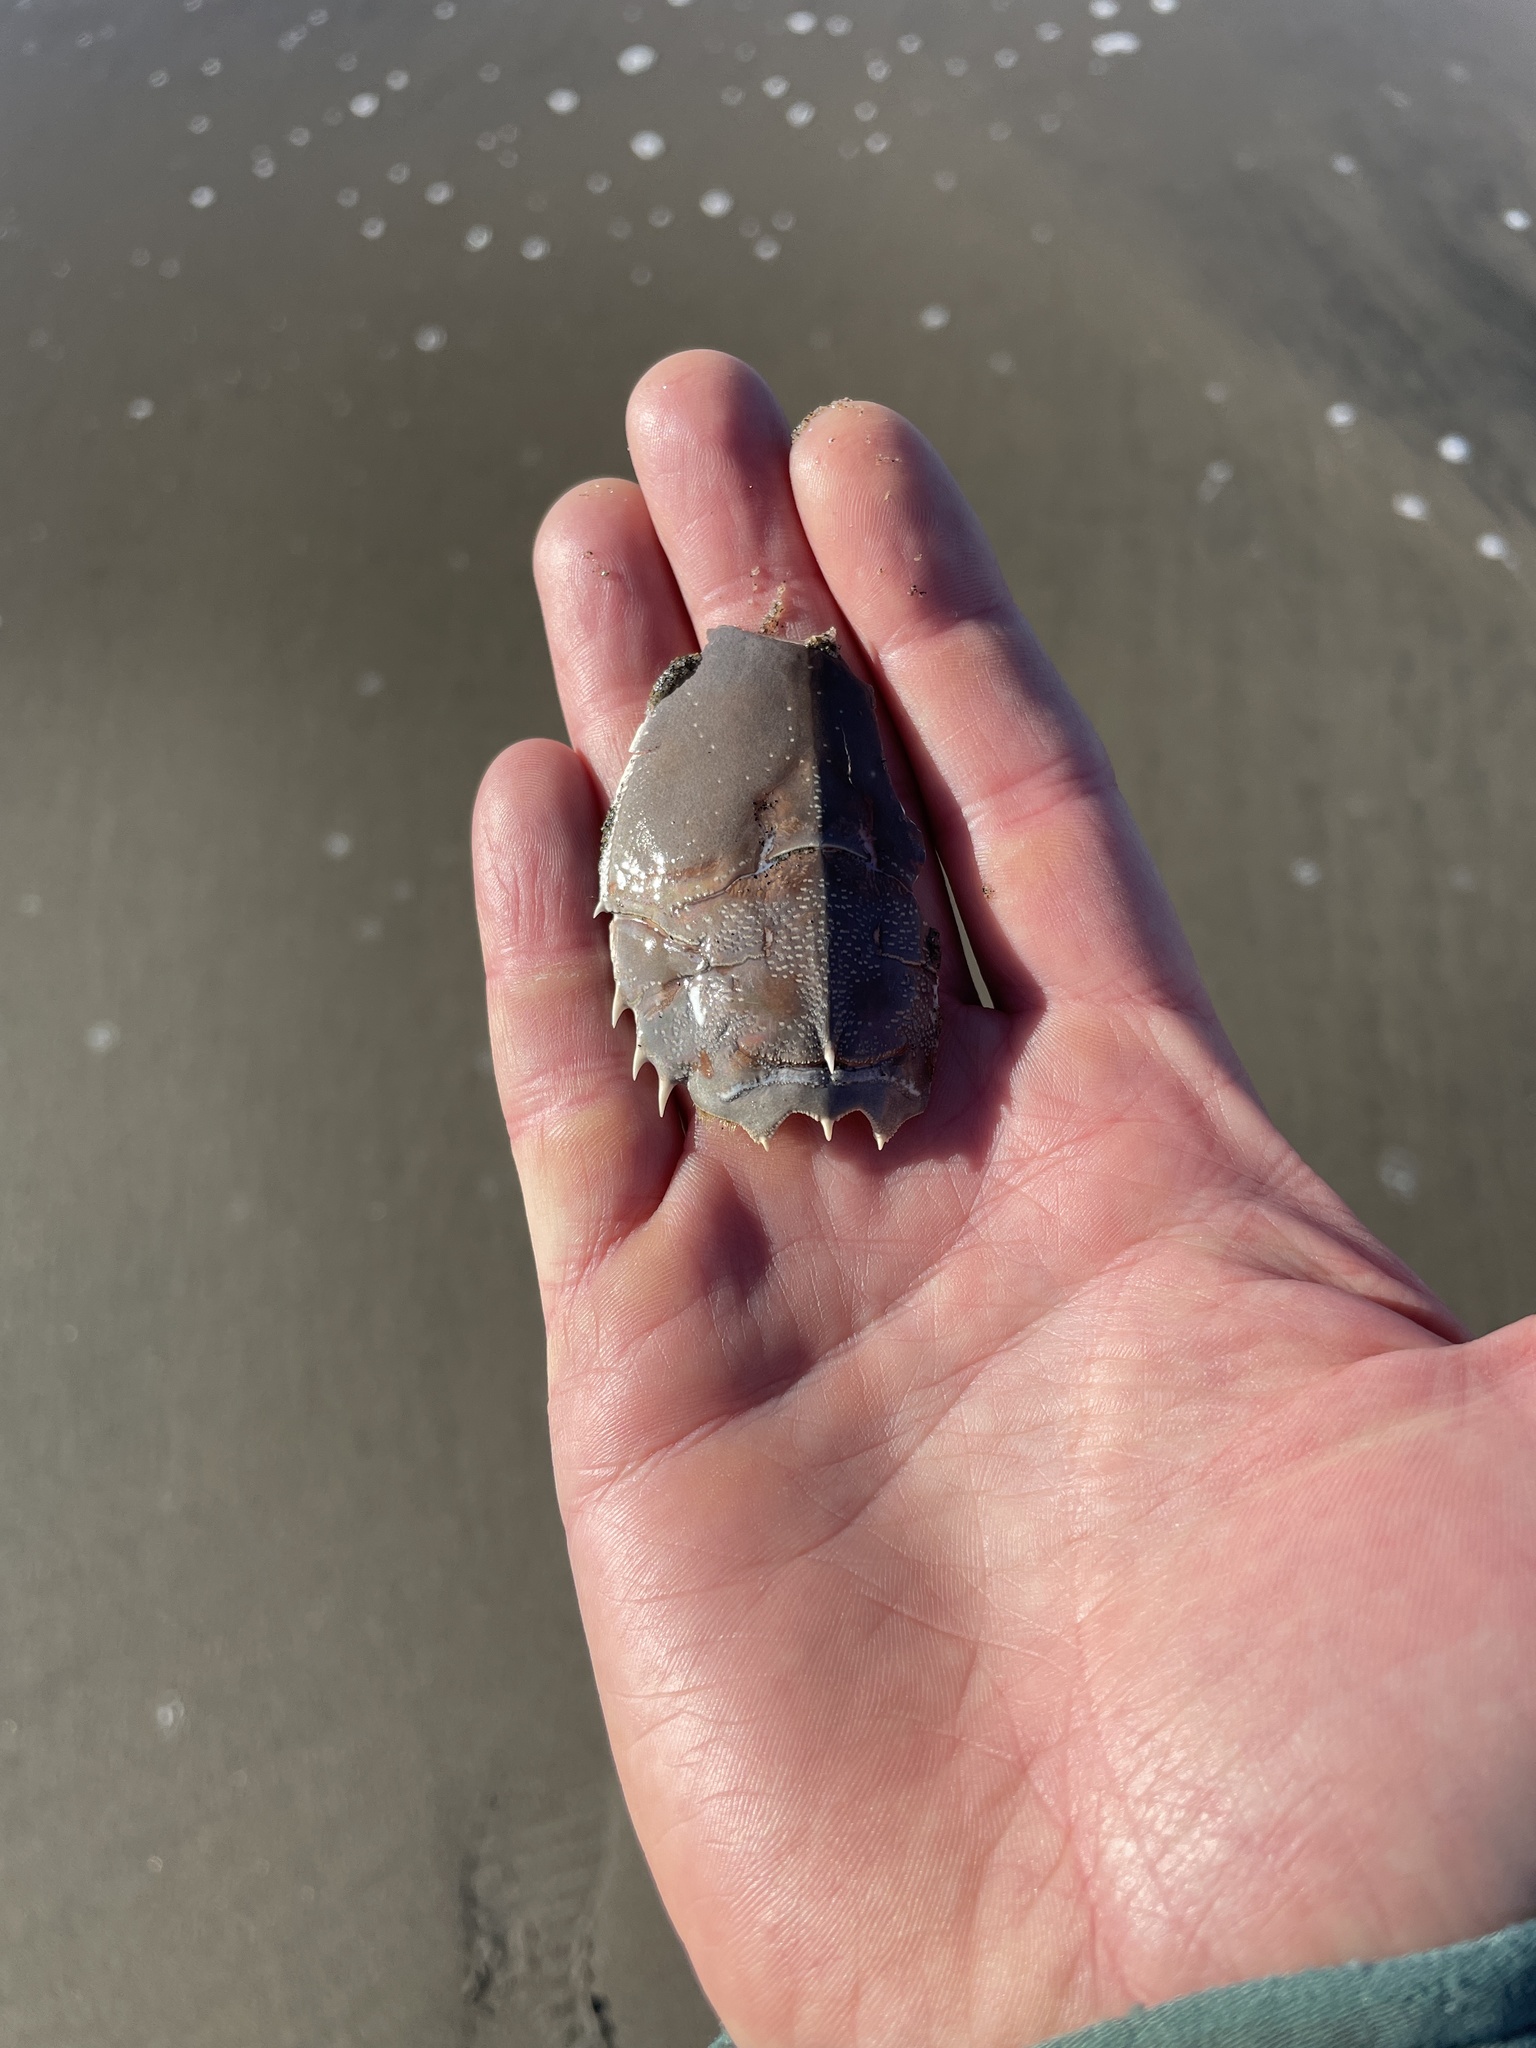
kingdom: Animalia
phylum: Arthropoda
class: Malacostraca
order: Decapoda
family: Blepharipodidae
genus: Blepharipoda
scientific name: Blepharipoda occidentalis
